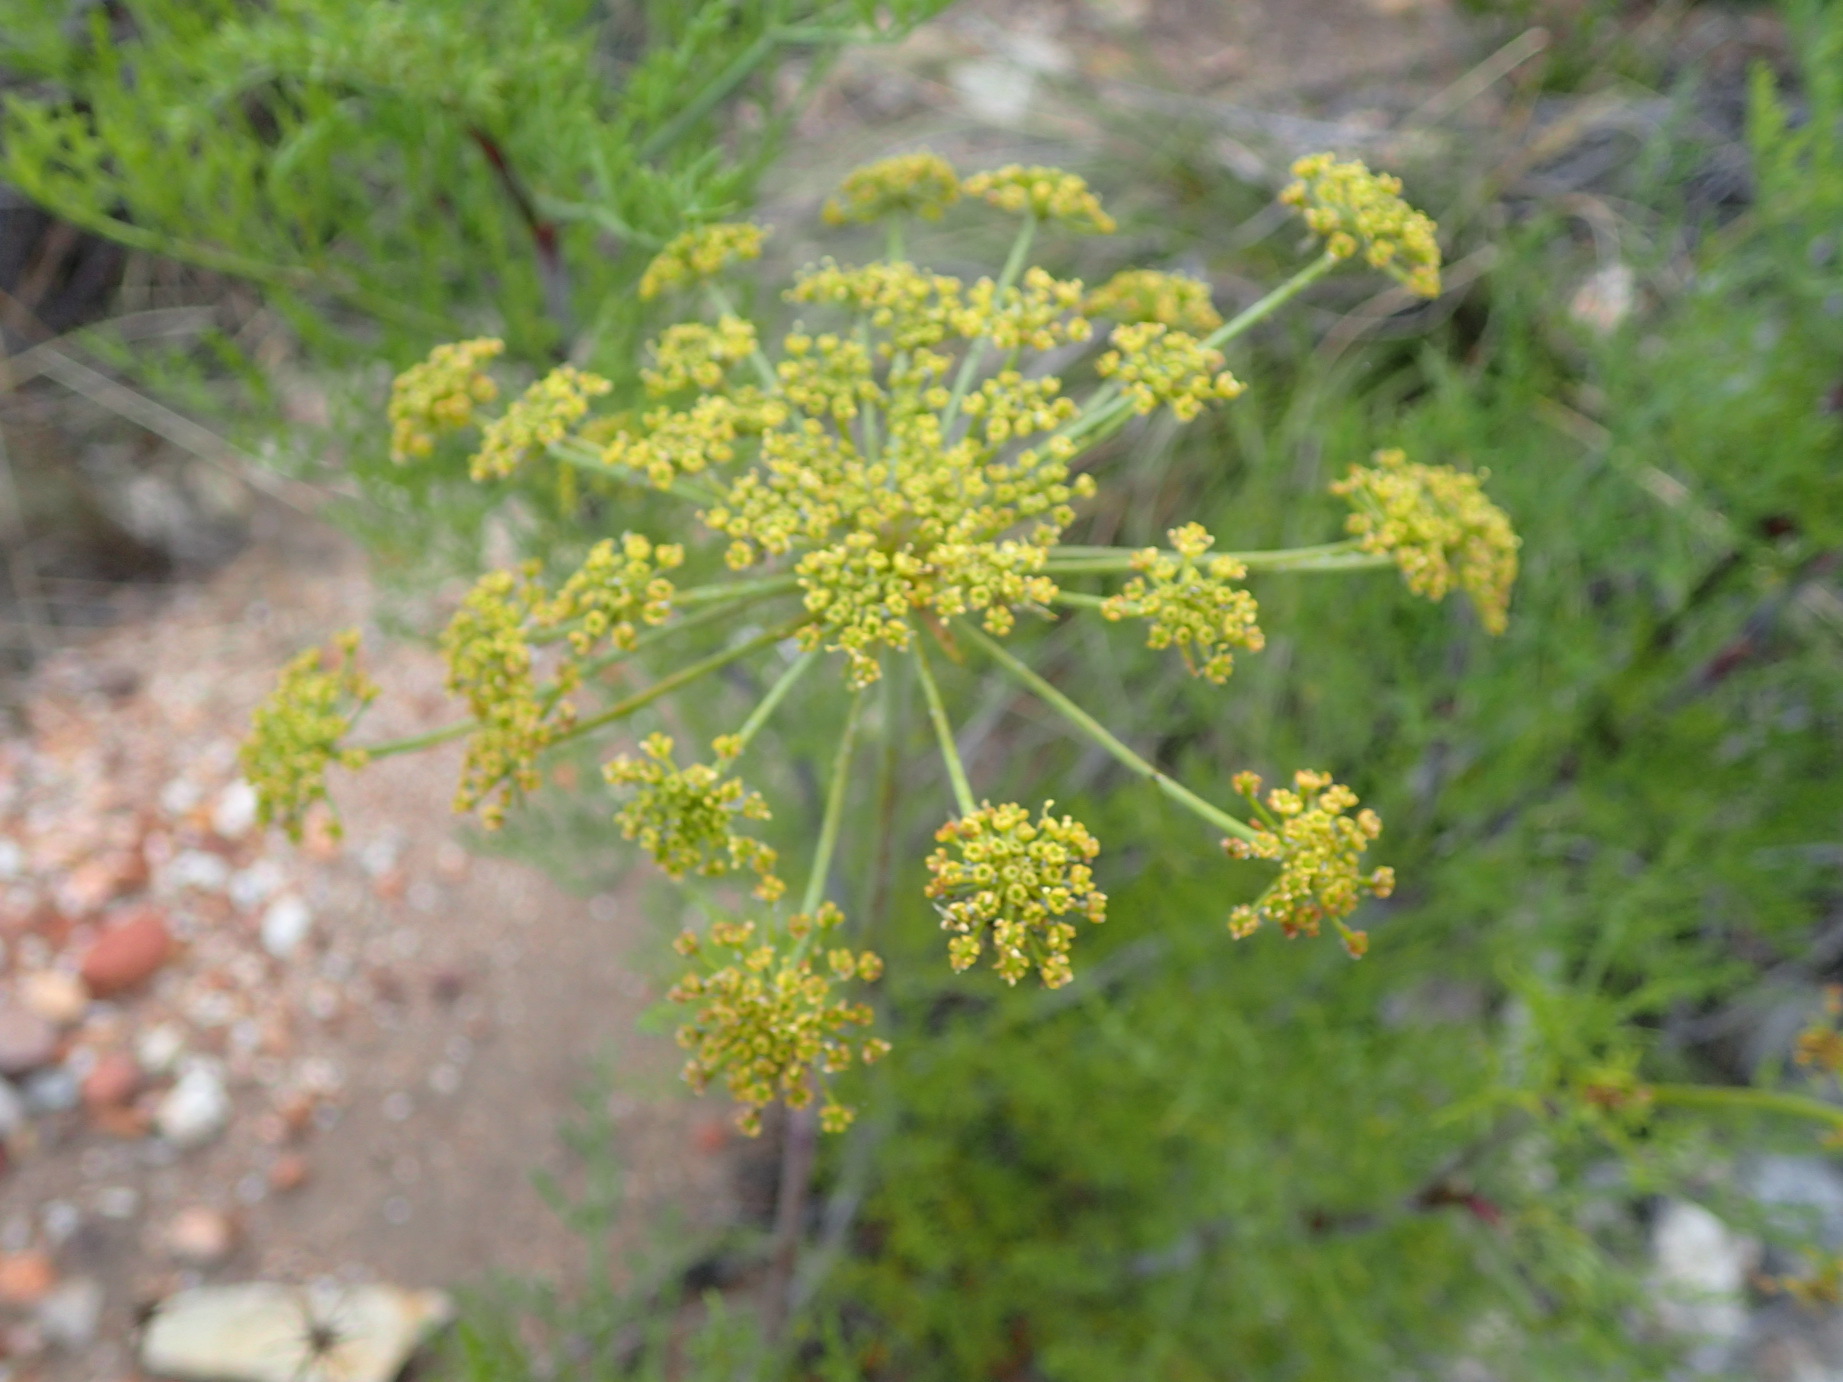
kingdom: Plantae
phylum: Tracheophyta
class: Magnoliopsida
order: Apiales
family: Apiaceae
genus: Notobubon
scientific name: Notobubon tenuifolium
